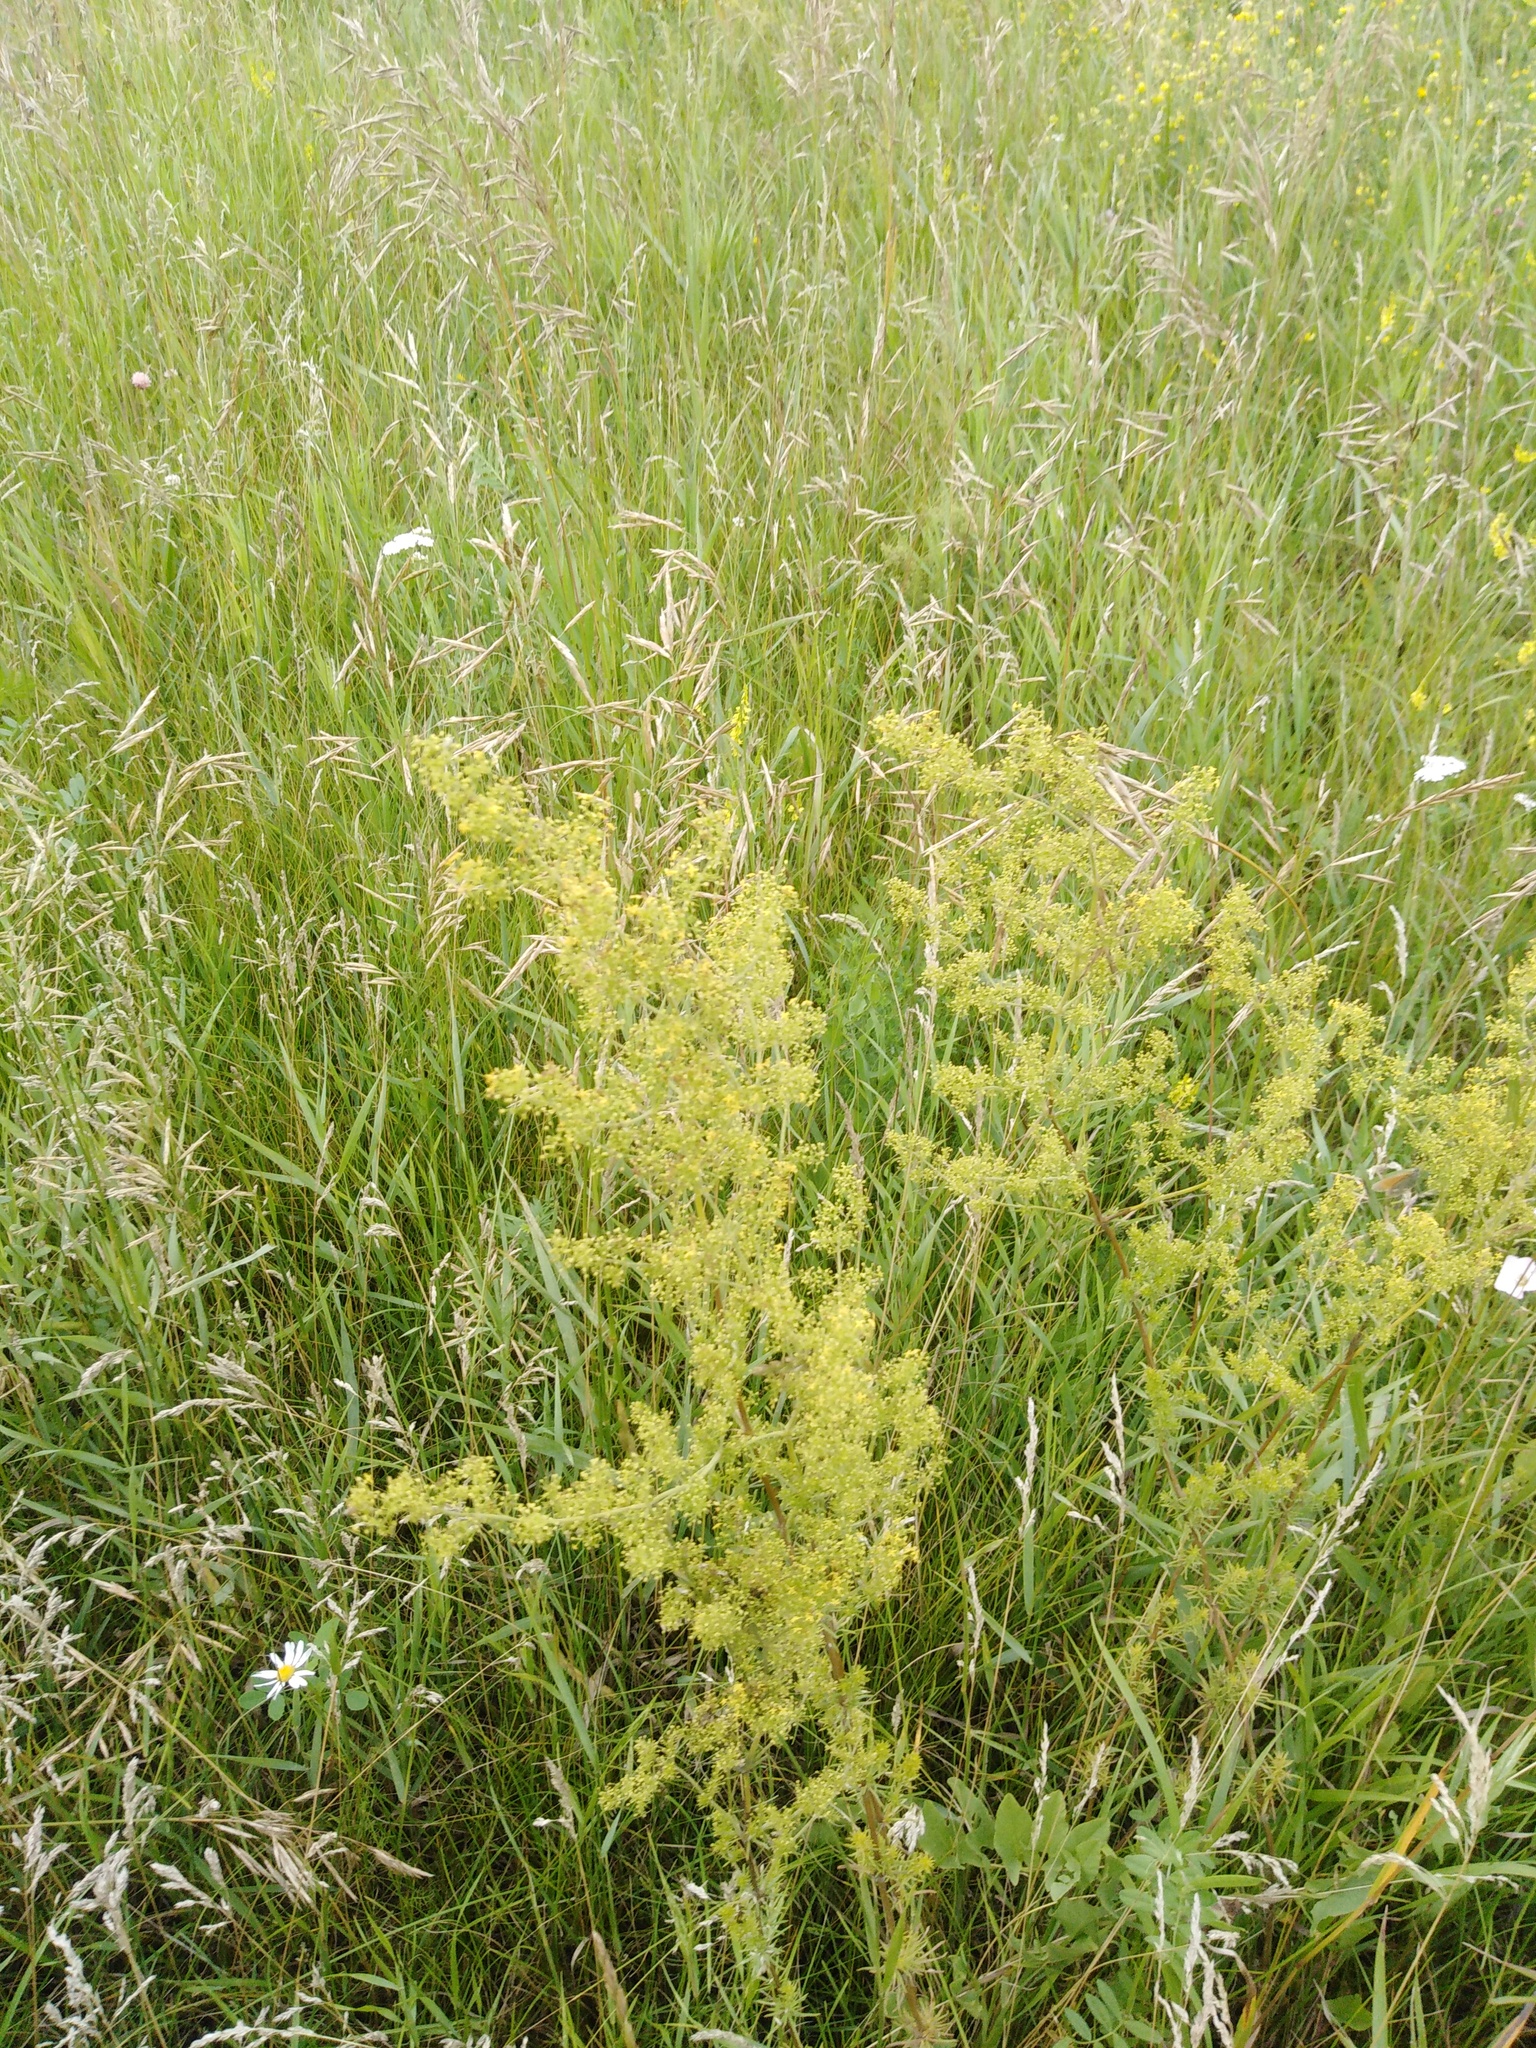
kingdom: Plantae
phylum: Tracheophyta
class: Magnoliopsida
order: Gentianales
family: Rubiaceae
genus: Galium
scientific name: Galium verum
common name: Lady's bedstraw
